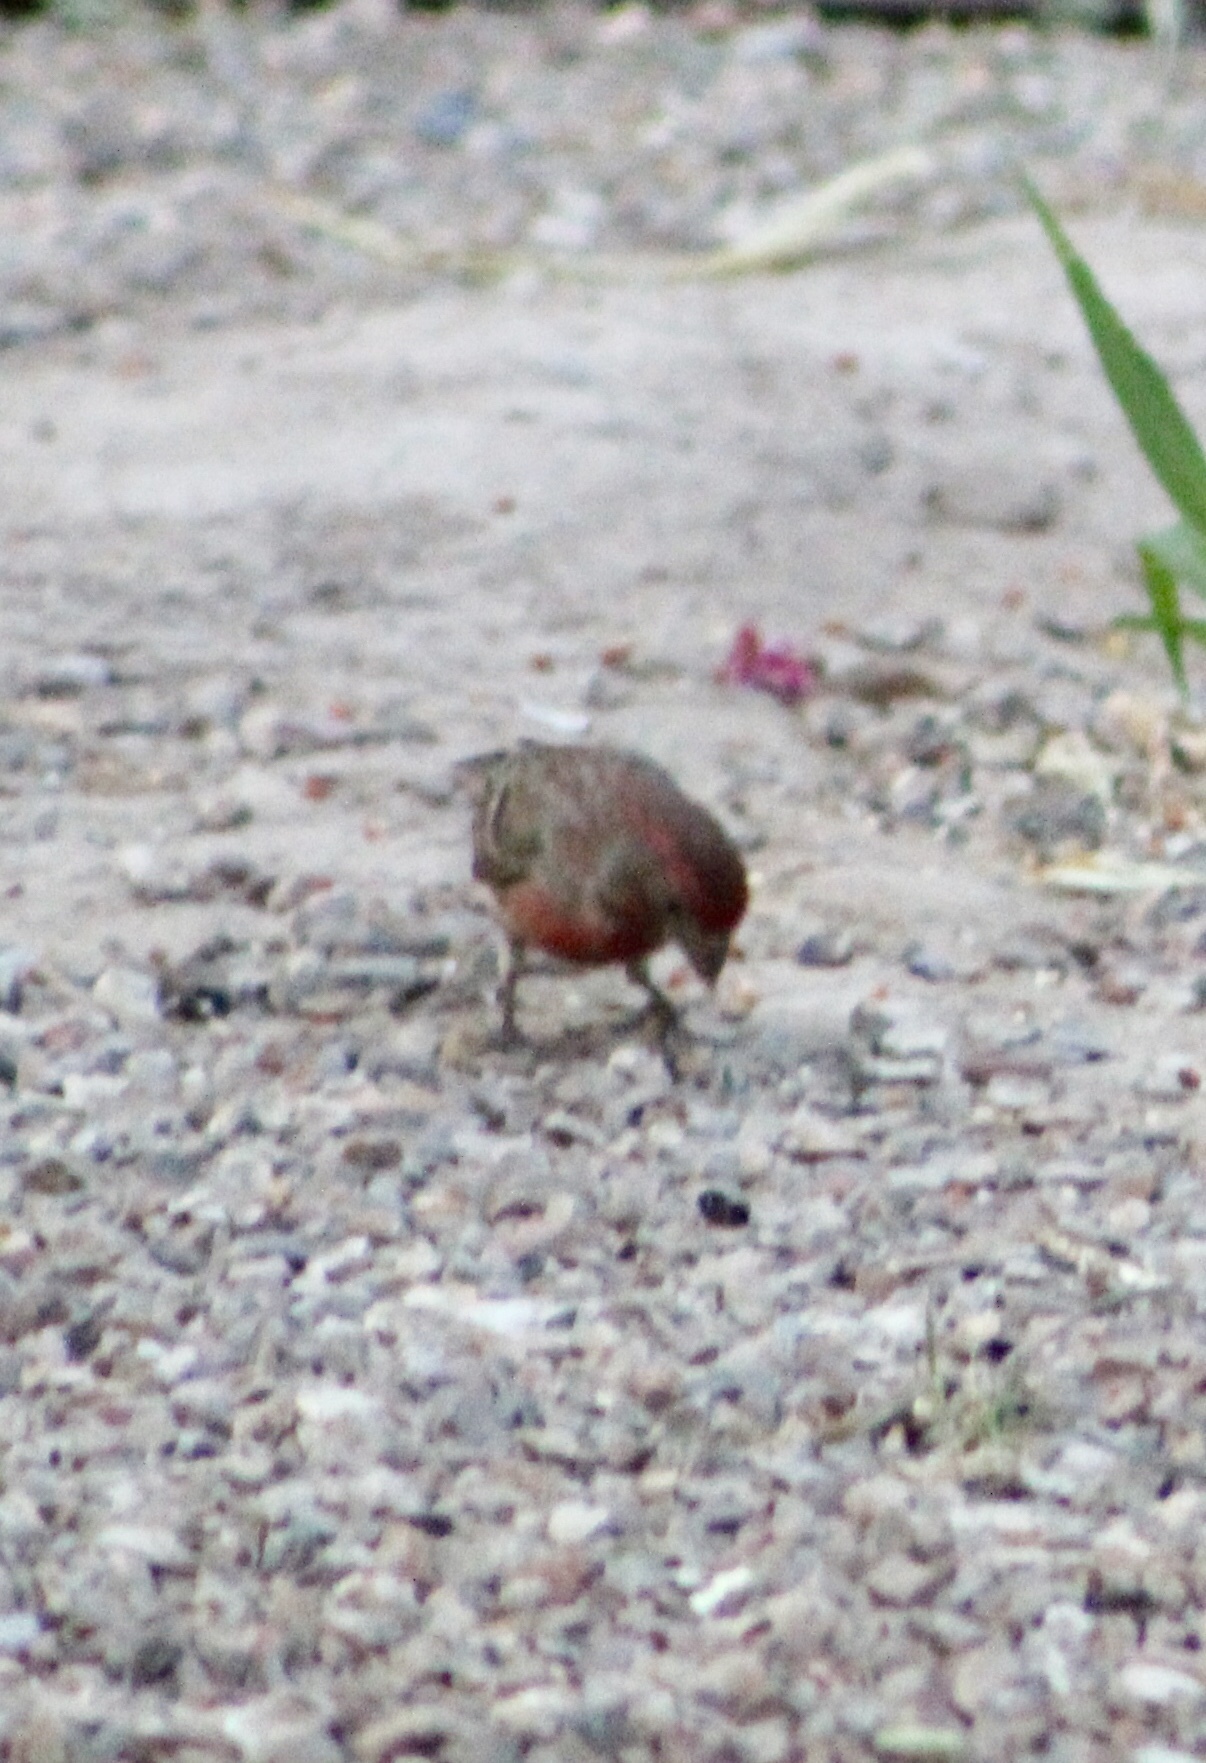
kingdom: Animalia
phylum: Chordata
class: Aves
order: Passeriformes
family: Fringillidae
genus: Haemorhous
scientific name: Haemorhous mexicanus
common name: House finch
